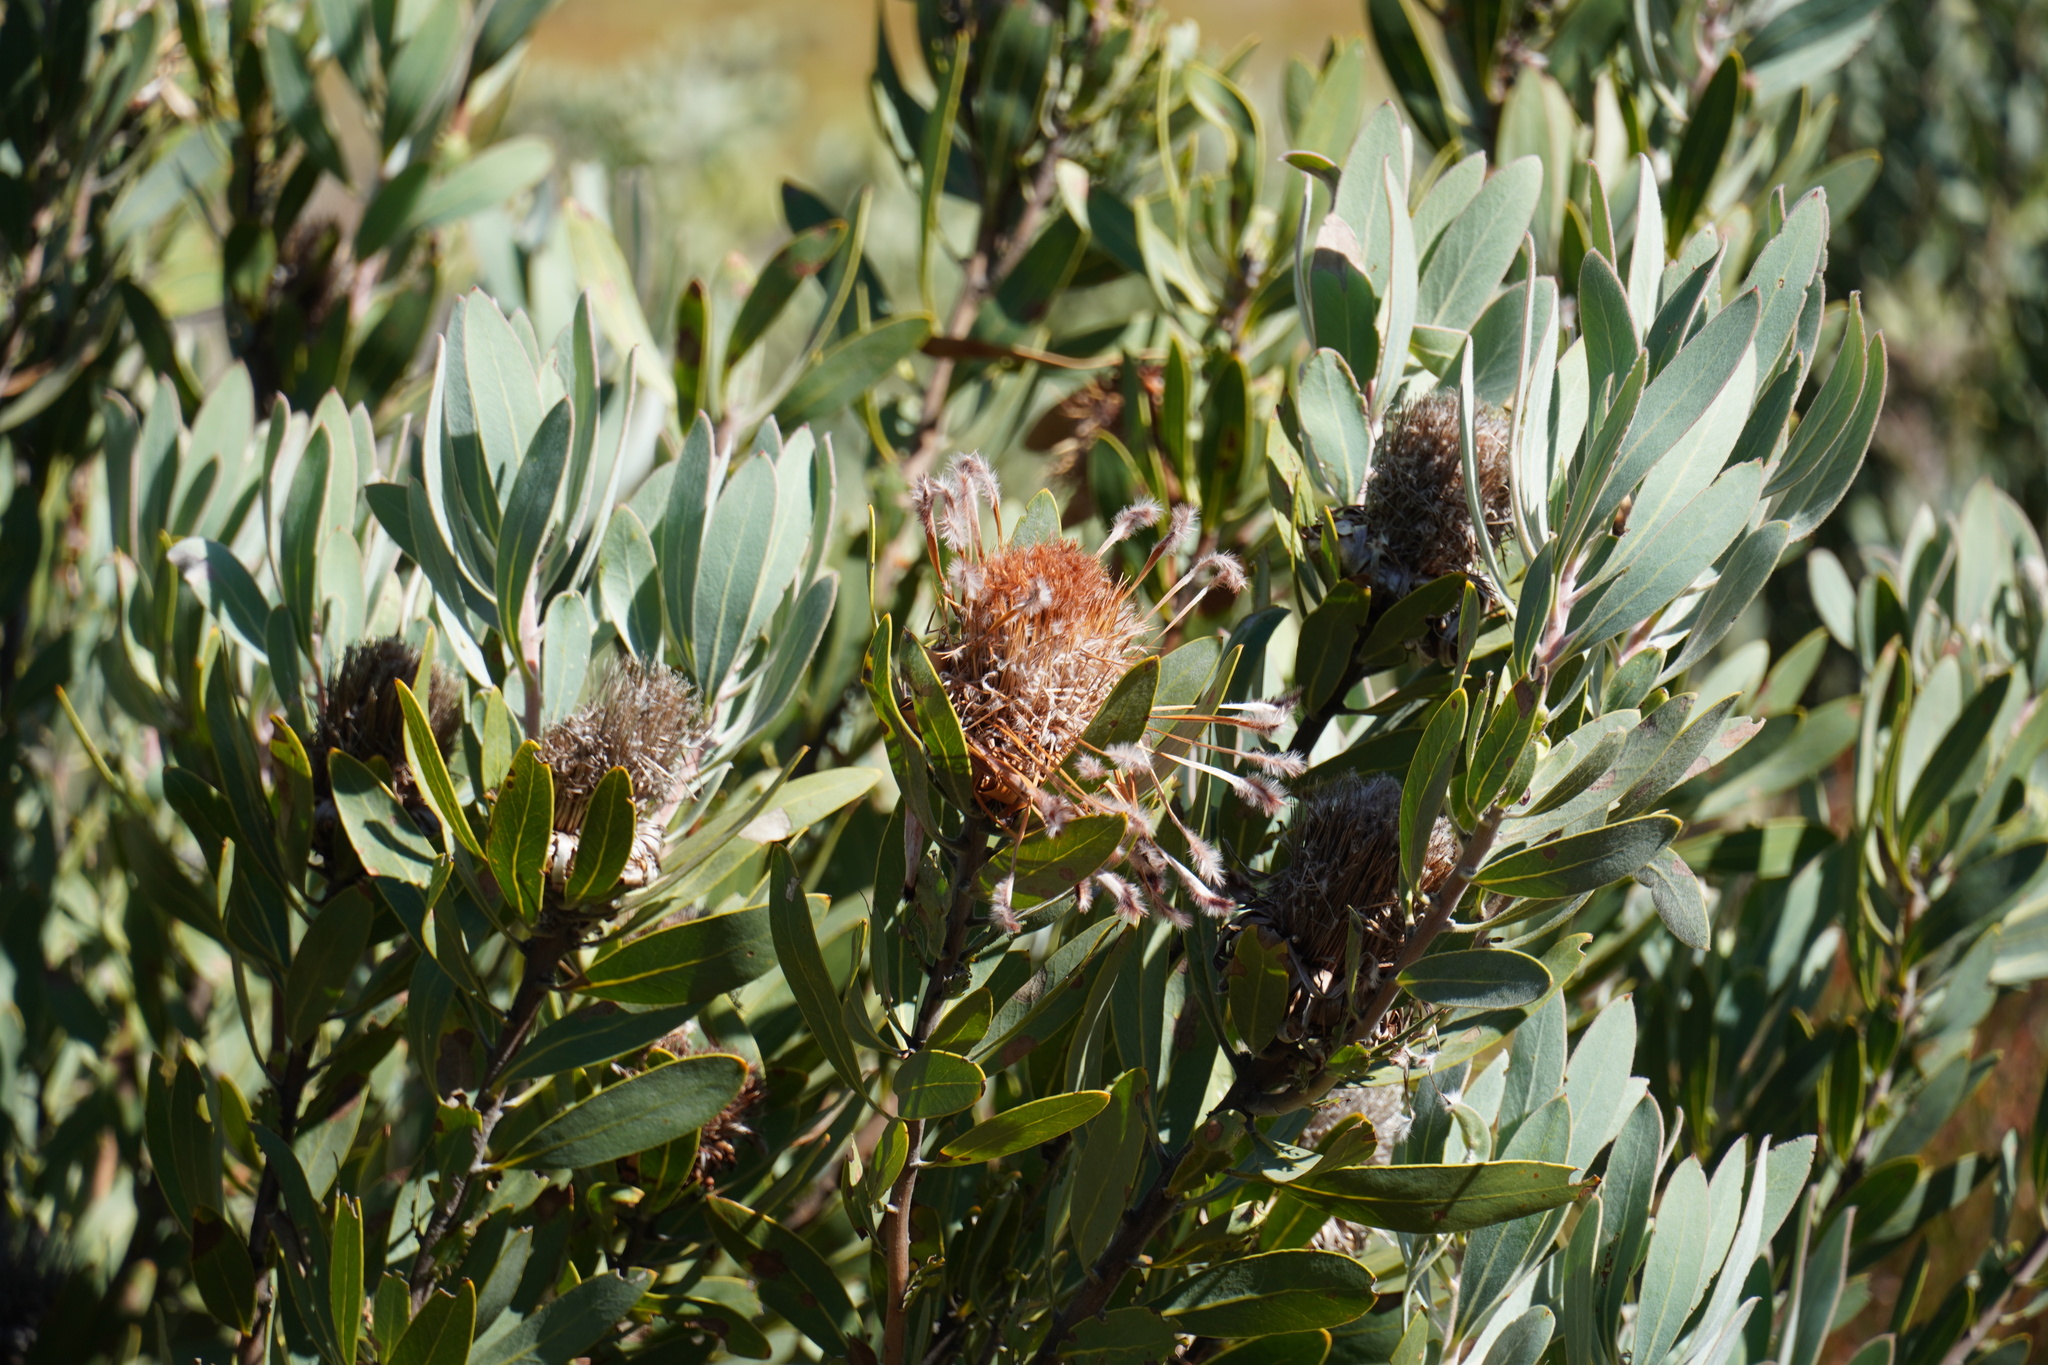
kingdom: Plantae
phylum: Tracheophyta
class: Magnoliopsida
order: Proteales
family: Proteaceae
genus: Protea
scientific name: Protea laurifolia
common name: Grey-leaf sugarbsh
